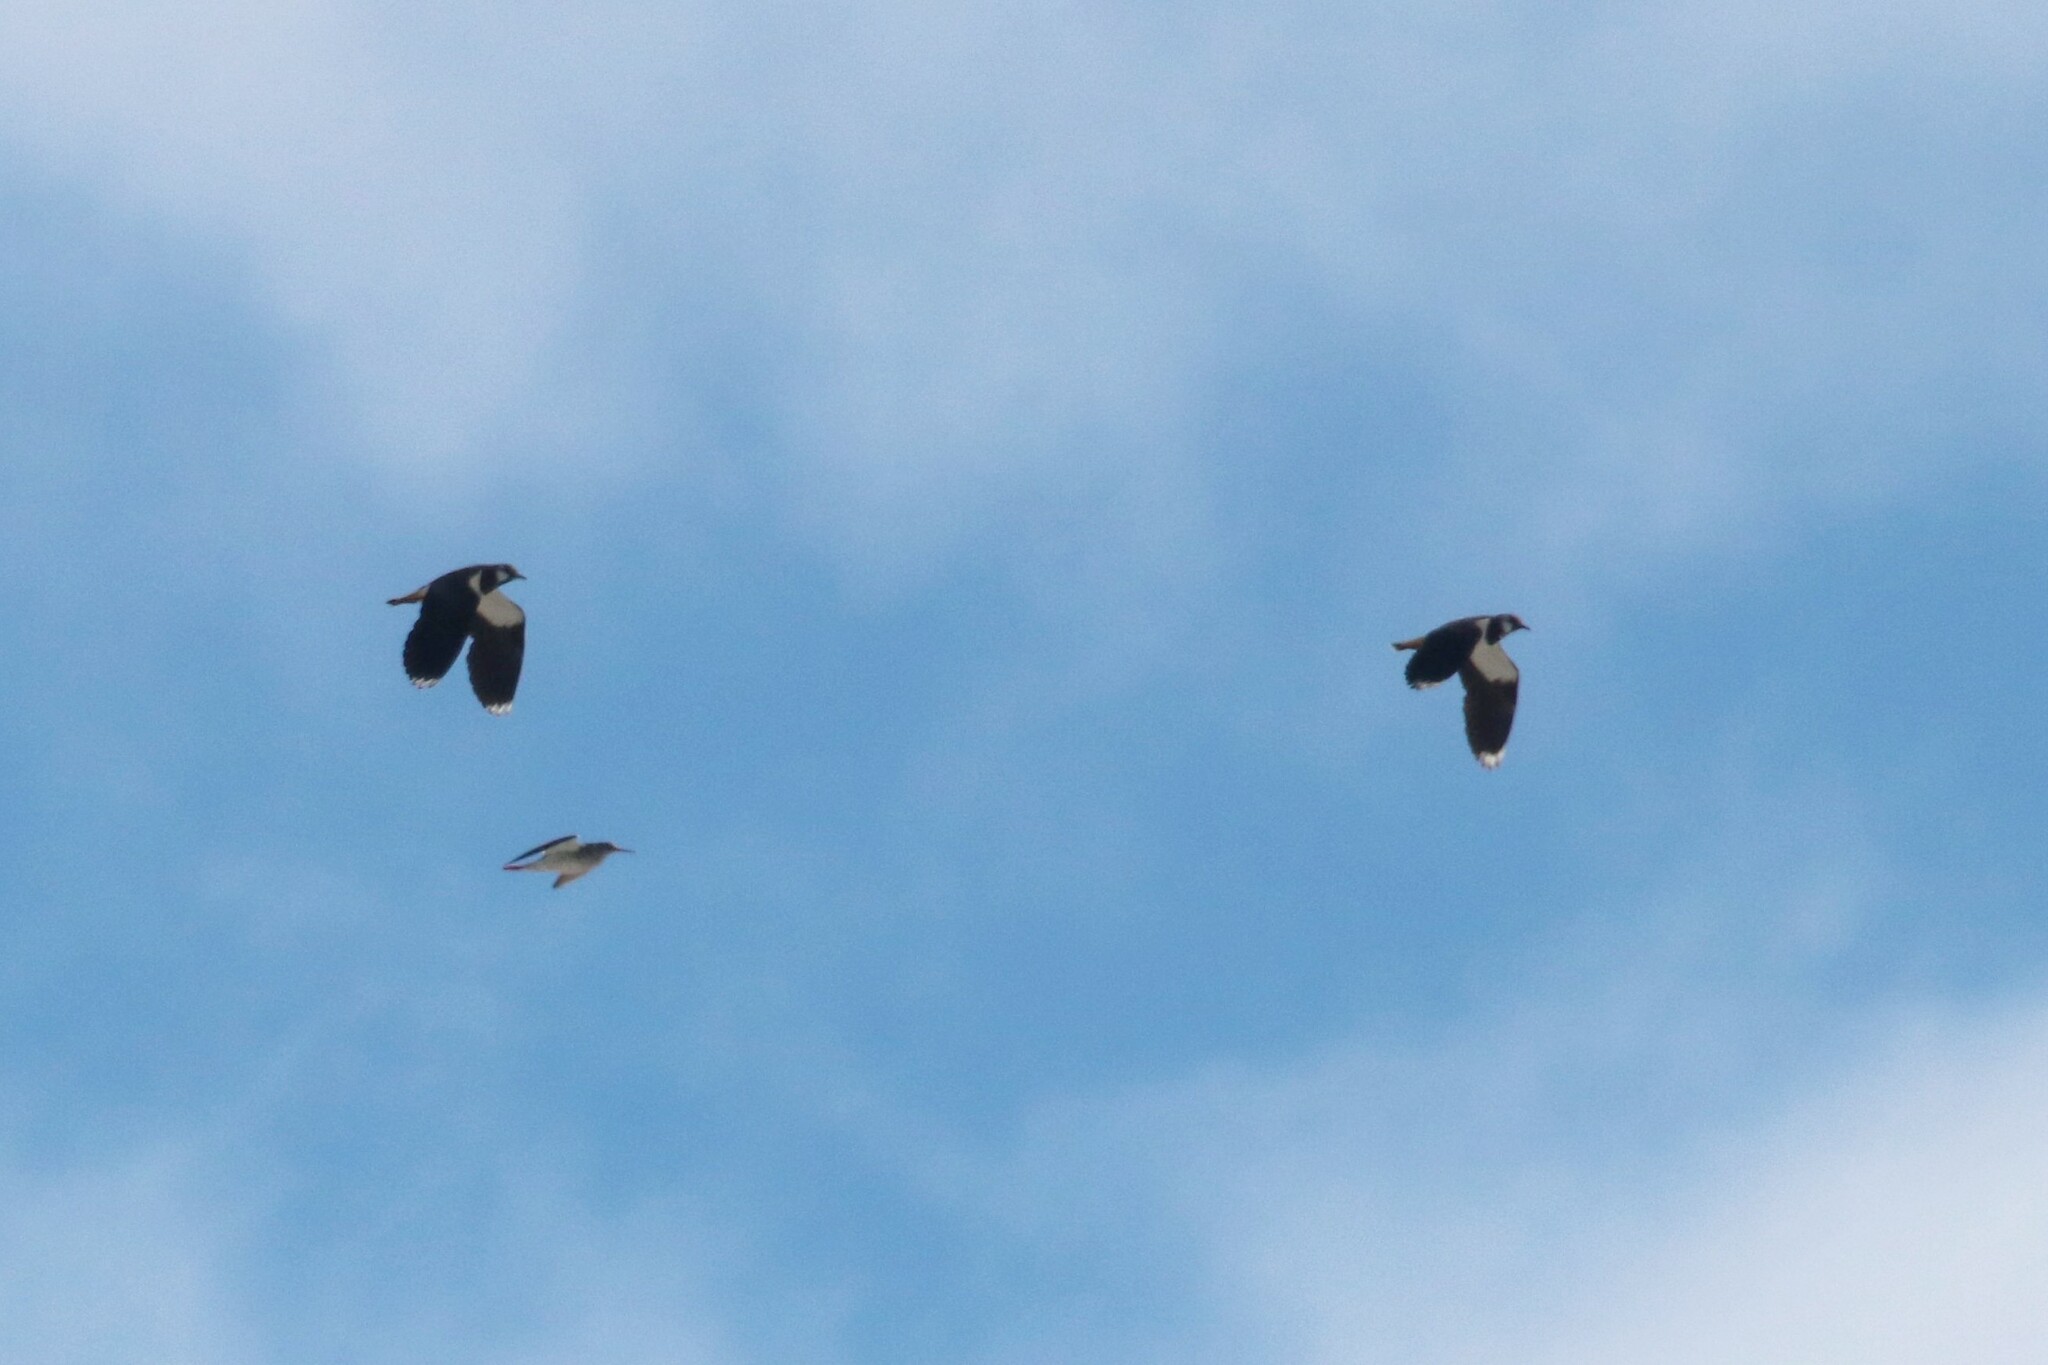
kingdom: Animalia
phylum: Chordata
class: Aves
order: Charadriiformes
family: Charadriidae
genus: Vanellus
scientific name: Vanellus vanellus
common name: Northern lapwing
